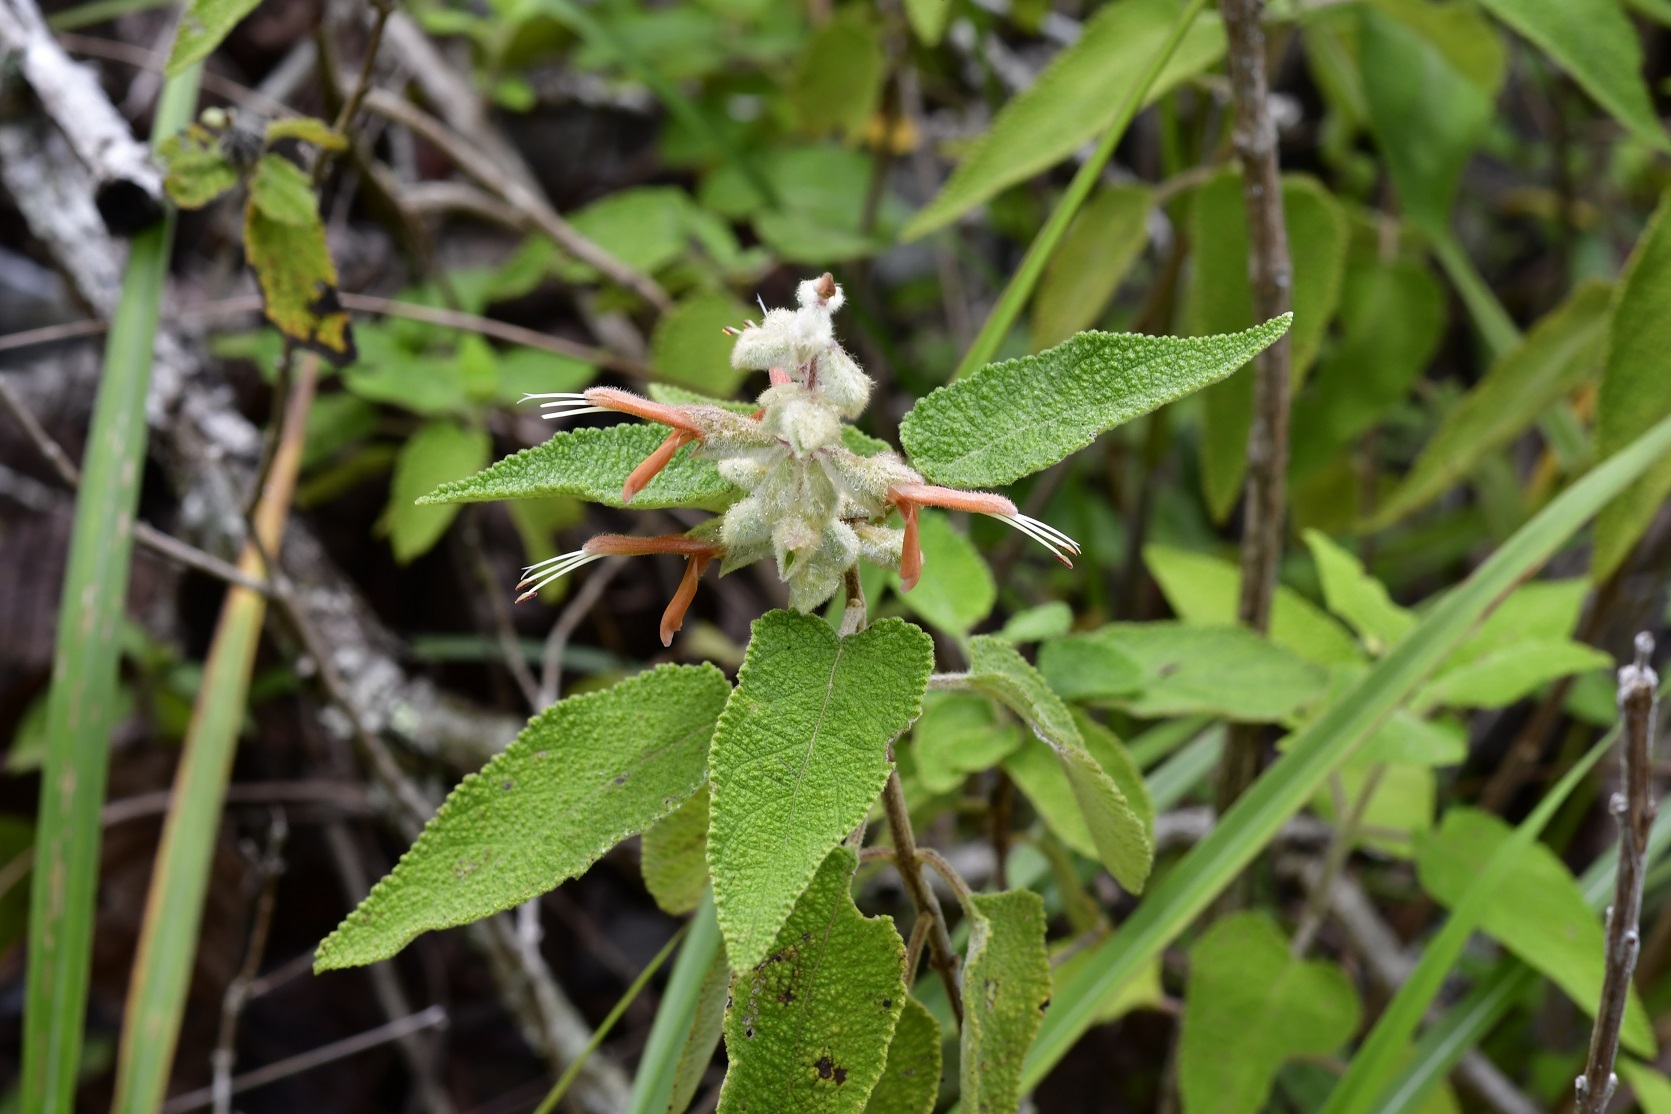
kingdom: Plantae
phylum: Tracheophyta
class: Magnoliopsida
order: Lamiales
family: Lamiaceae
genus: Salvia
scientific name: Salvia lasiantha
